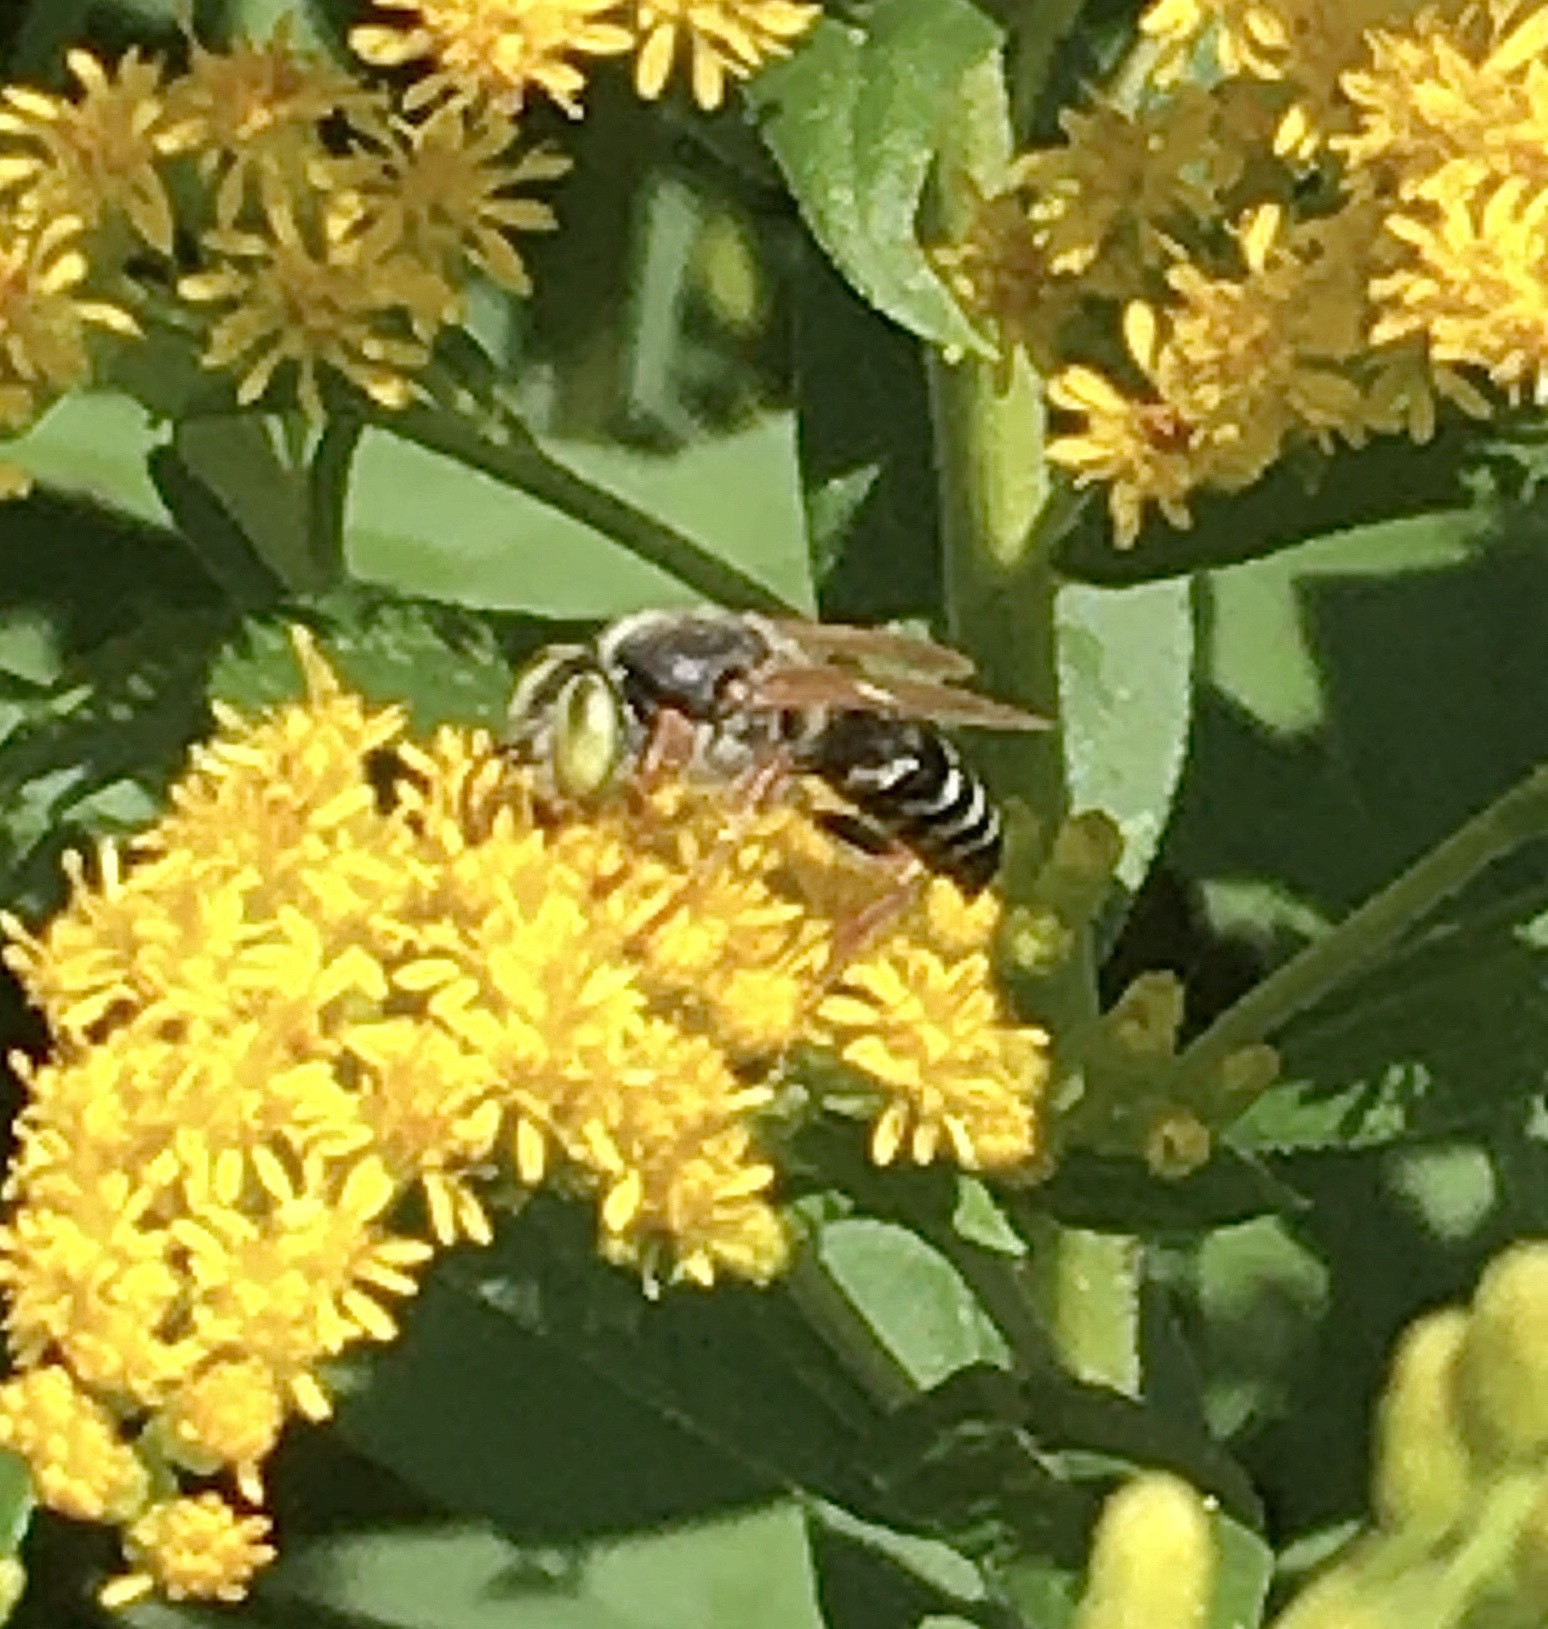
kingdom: Animalia
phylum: Arthropoda
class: Insecta
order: Hymenoptera
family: Crabronidae
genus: Tachytes
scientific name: Tachytes
